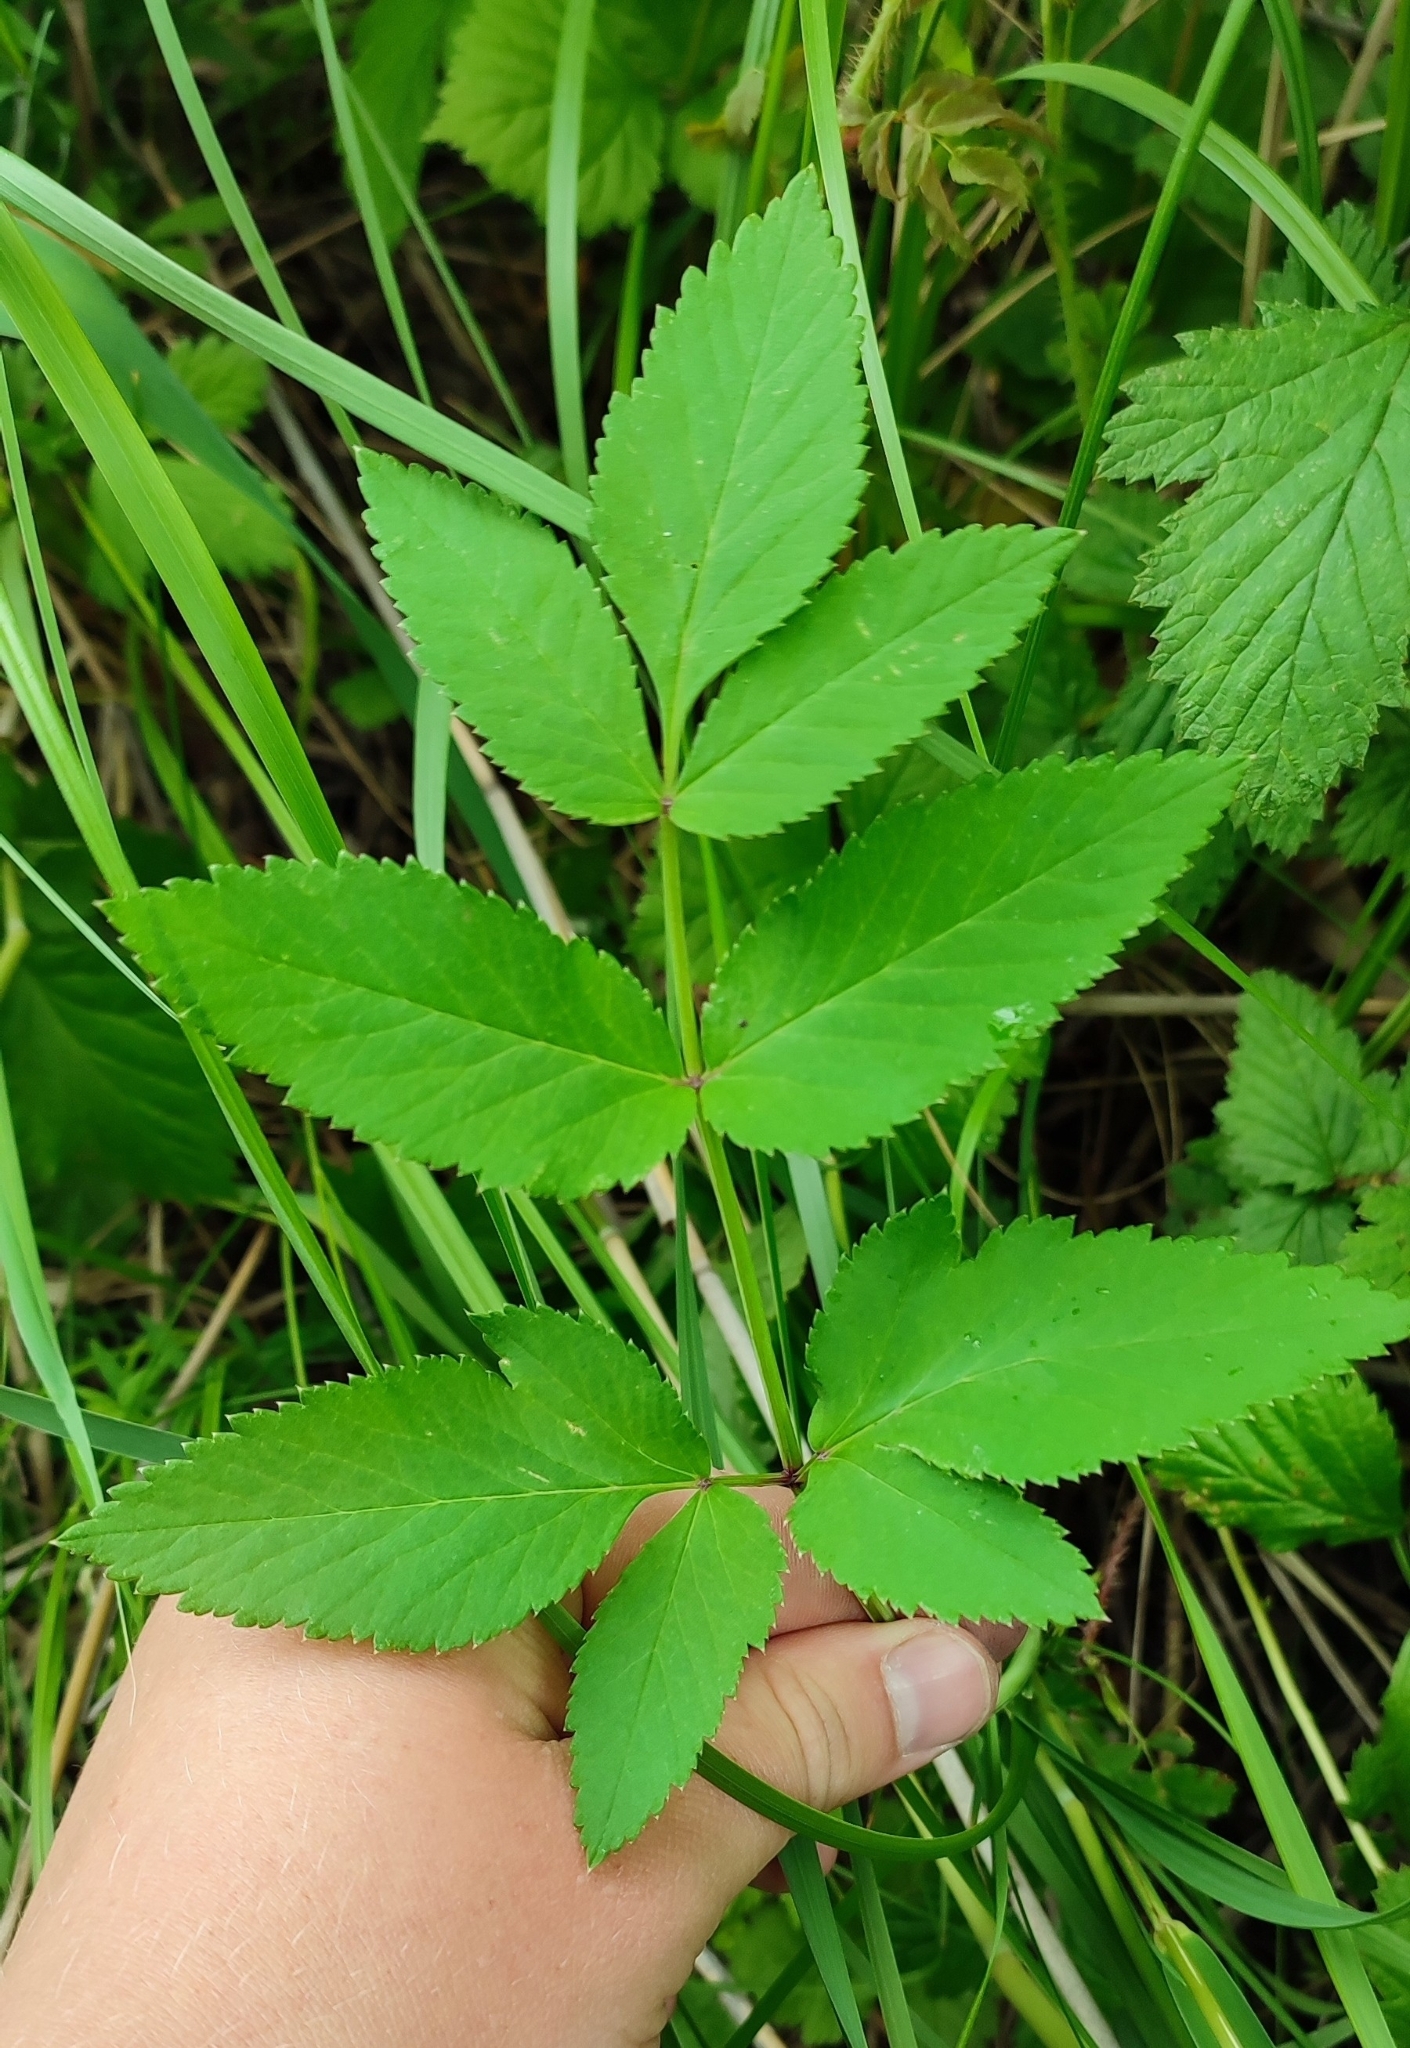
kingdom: Plantae
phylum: Tracheophyta
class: Magnoliopsida
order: Apiales
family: Apiaceae
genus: Angelica
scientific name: Angelica sylvestris
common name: Wild angelica
